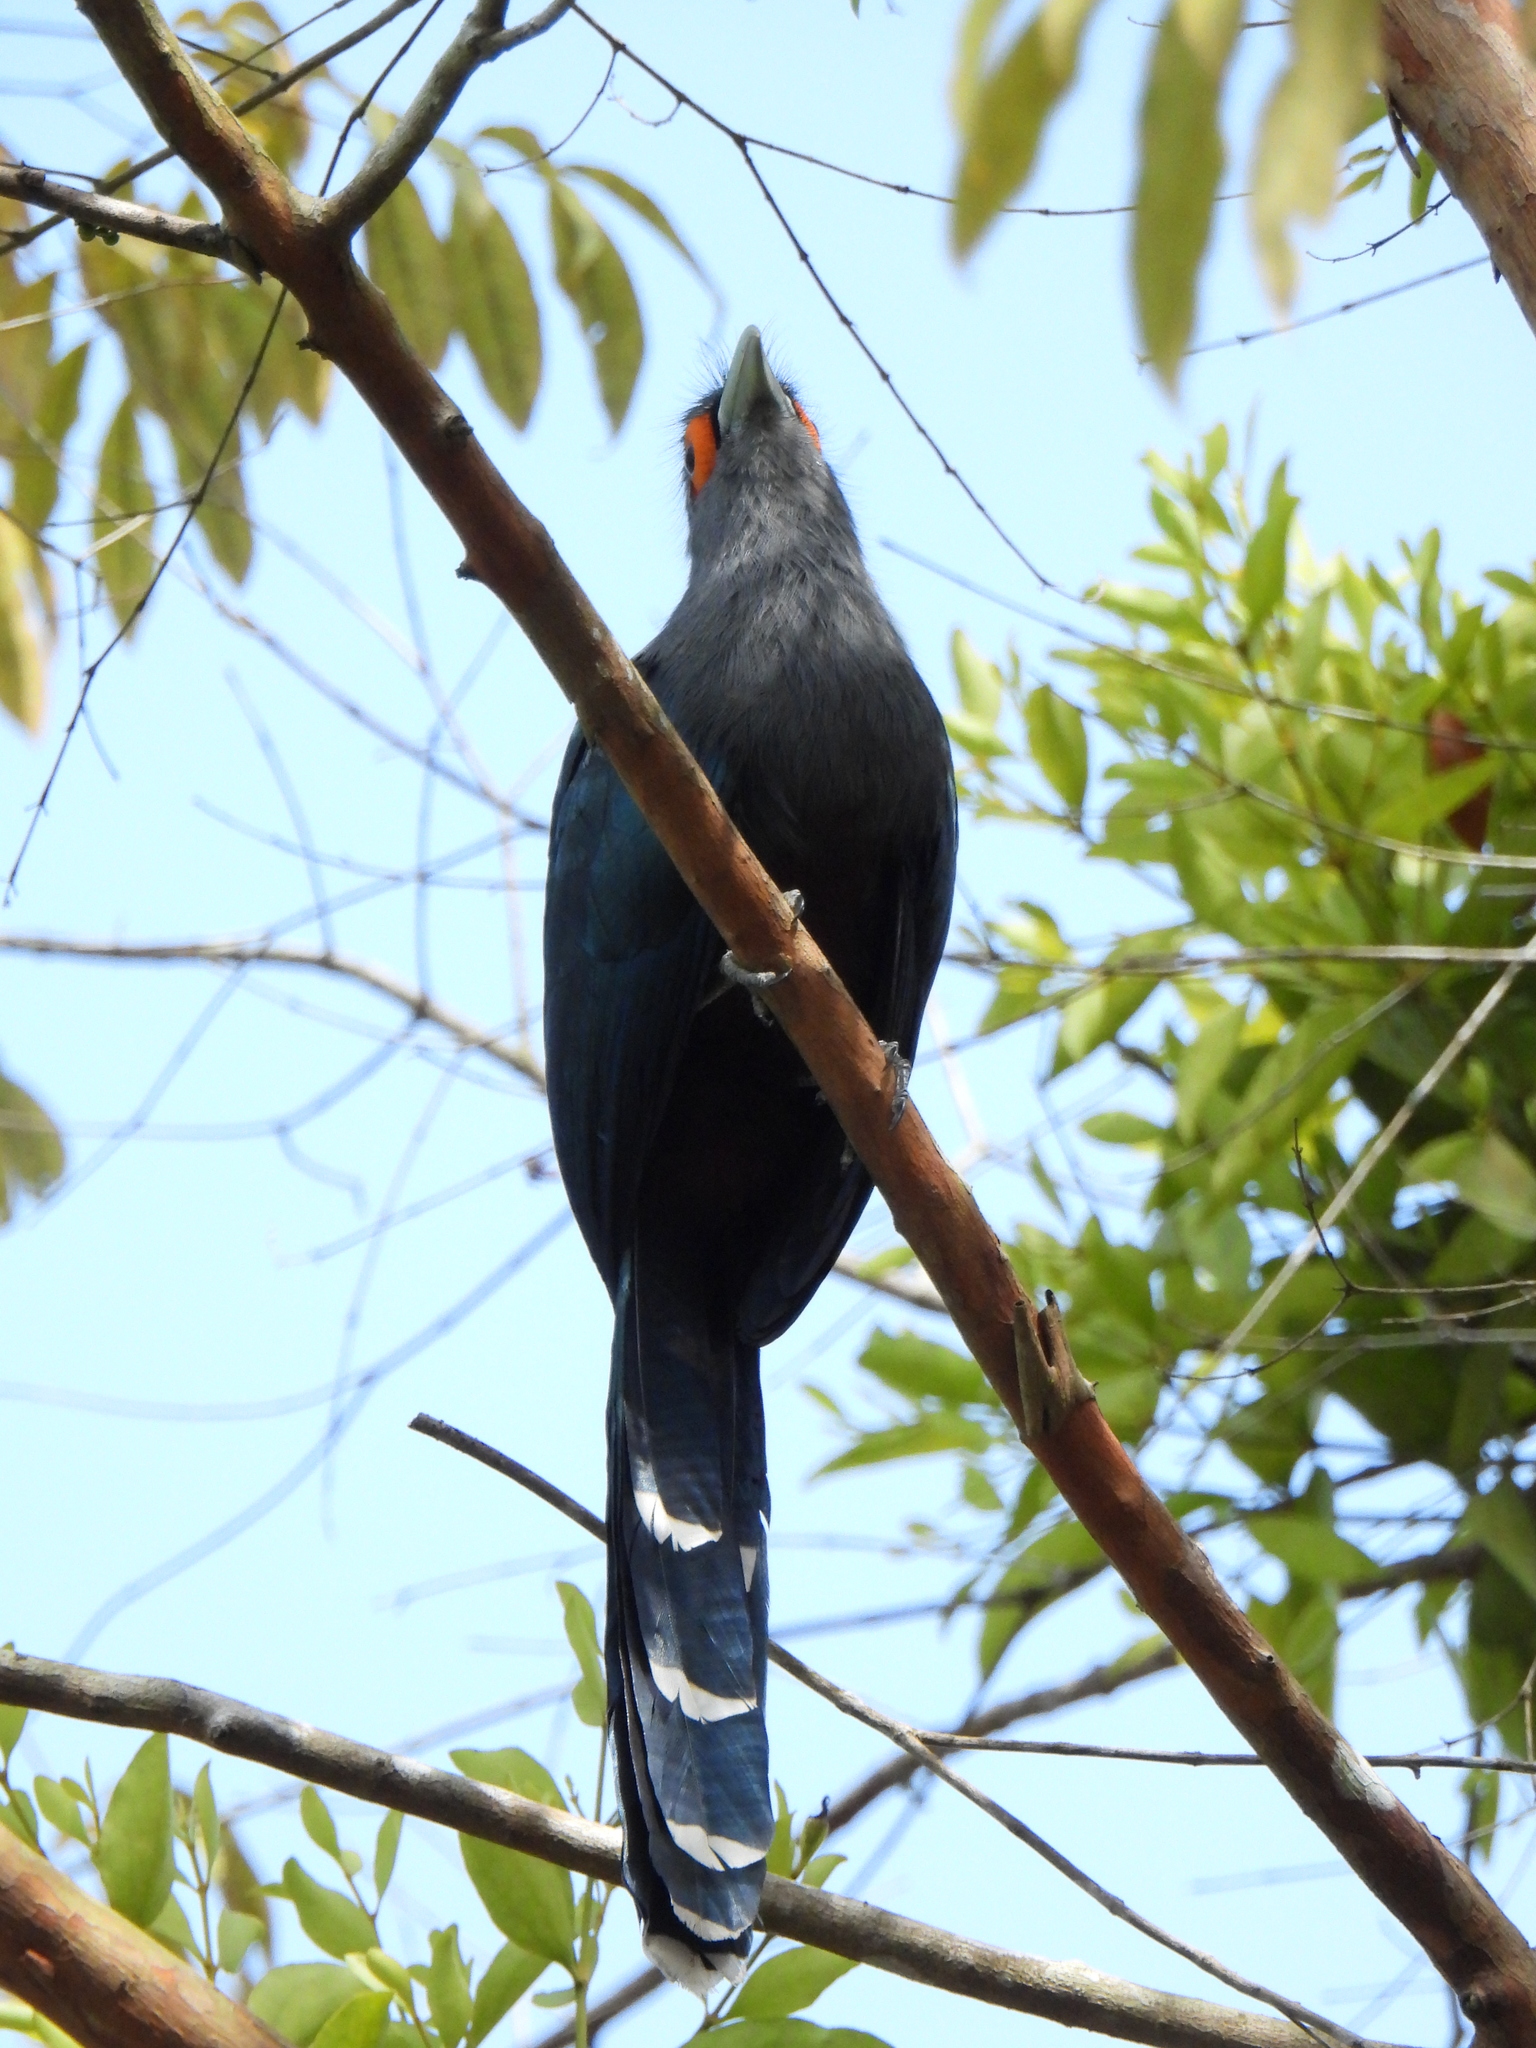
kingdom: Animalia
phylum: Chordata
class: Aves
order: Cuculiformes
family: Cuculidae
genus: Rhopodytes
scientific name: Rhopodytes sumatranus
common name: Rufous-bellied malcoha
